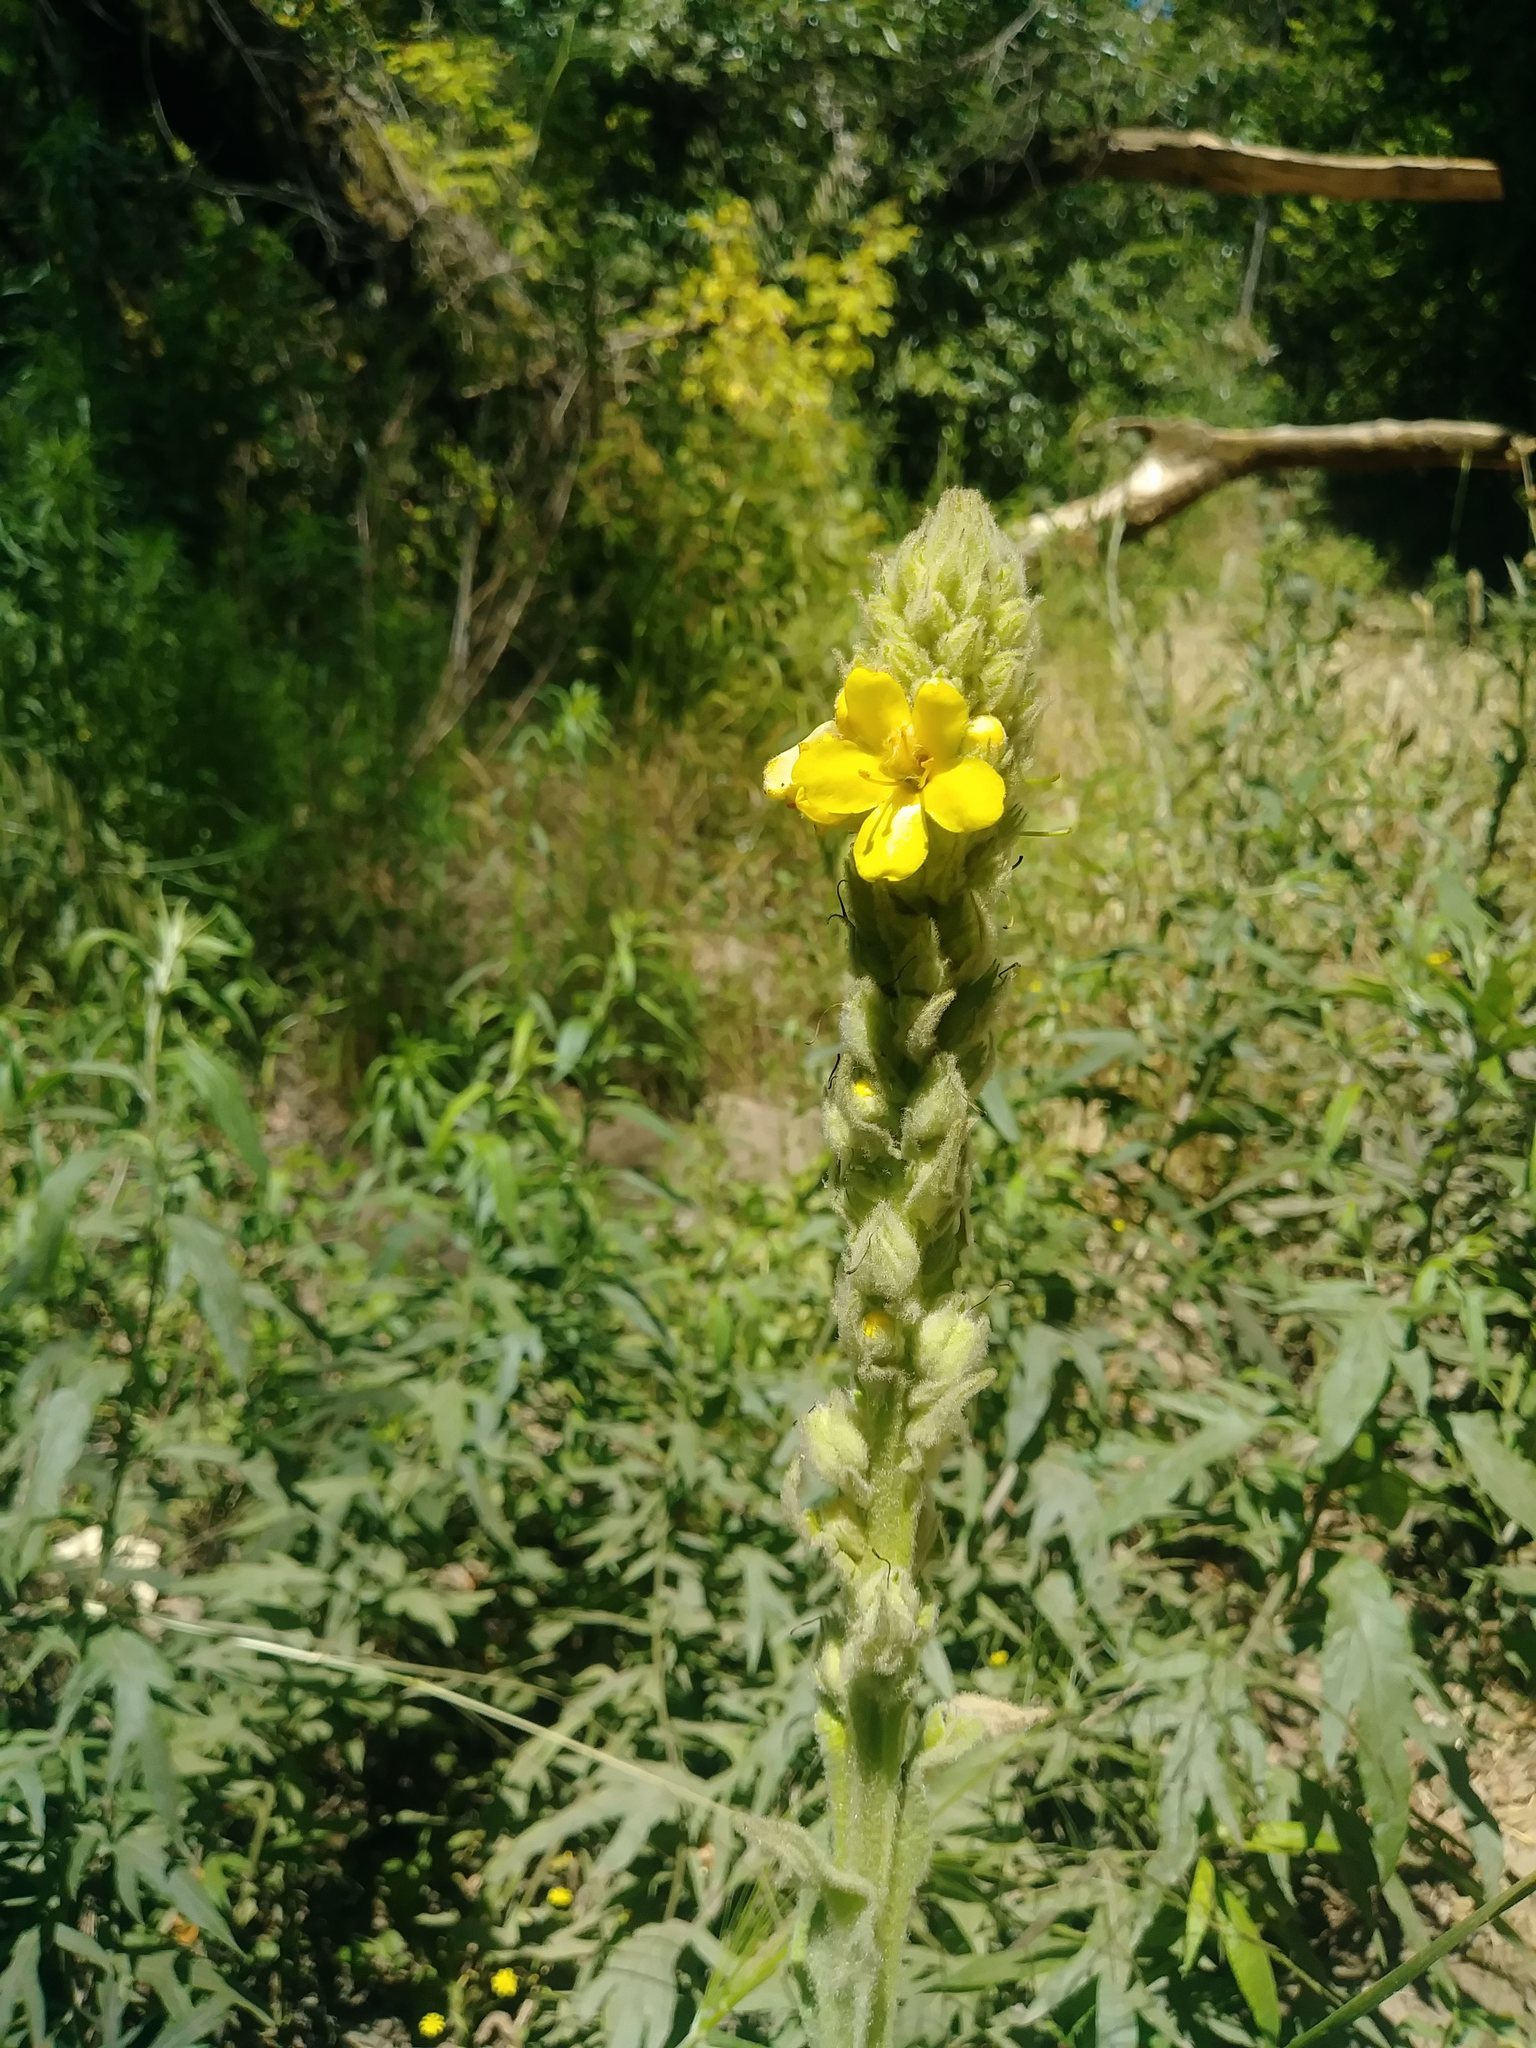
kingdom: Plantae
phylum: Tracheophyta
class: Magnoliopsida
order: Lamiales
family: Scrophulariaceae
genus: Verbascum
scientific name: Verbascum thapsus
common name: Common mullein
